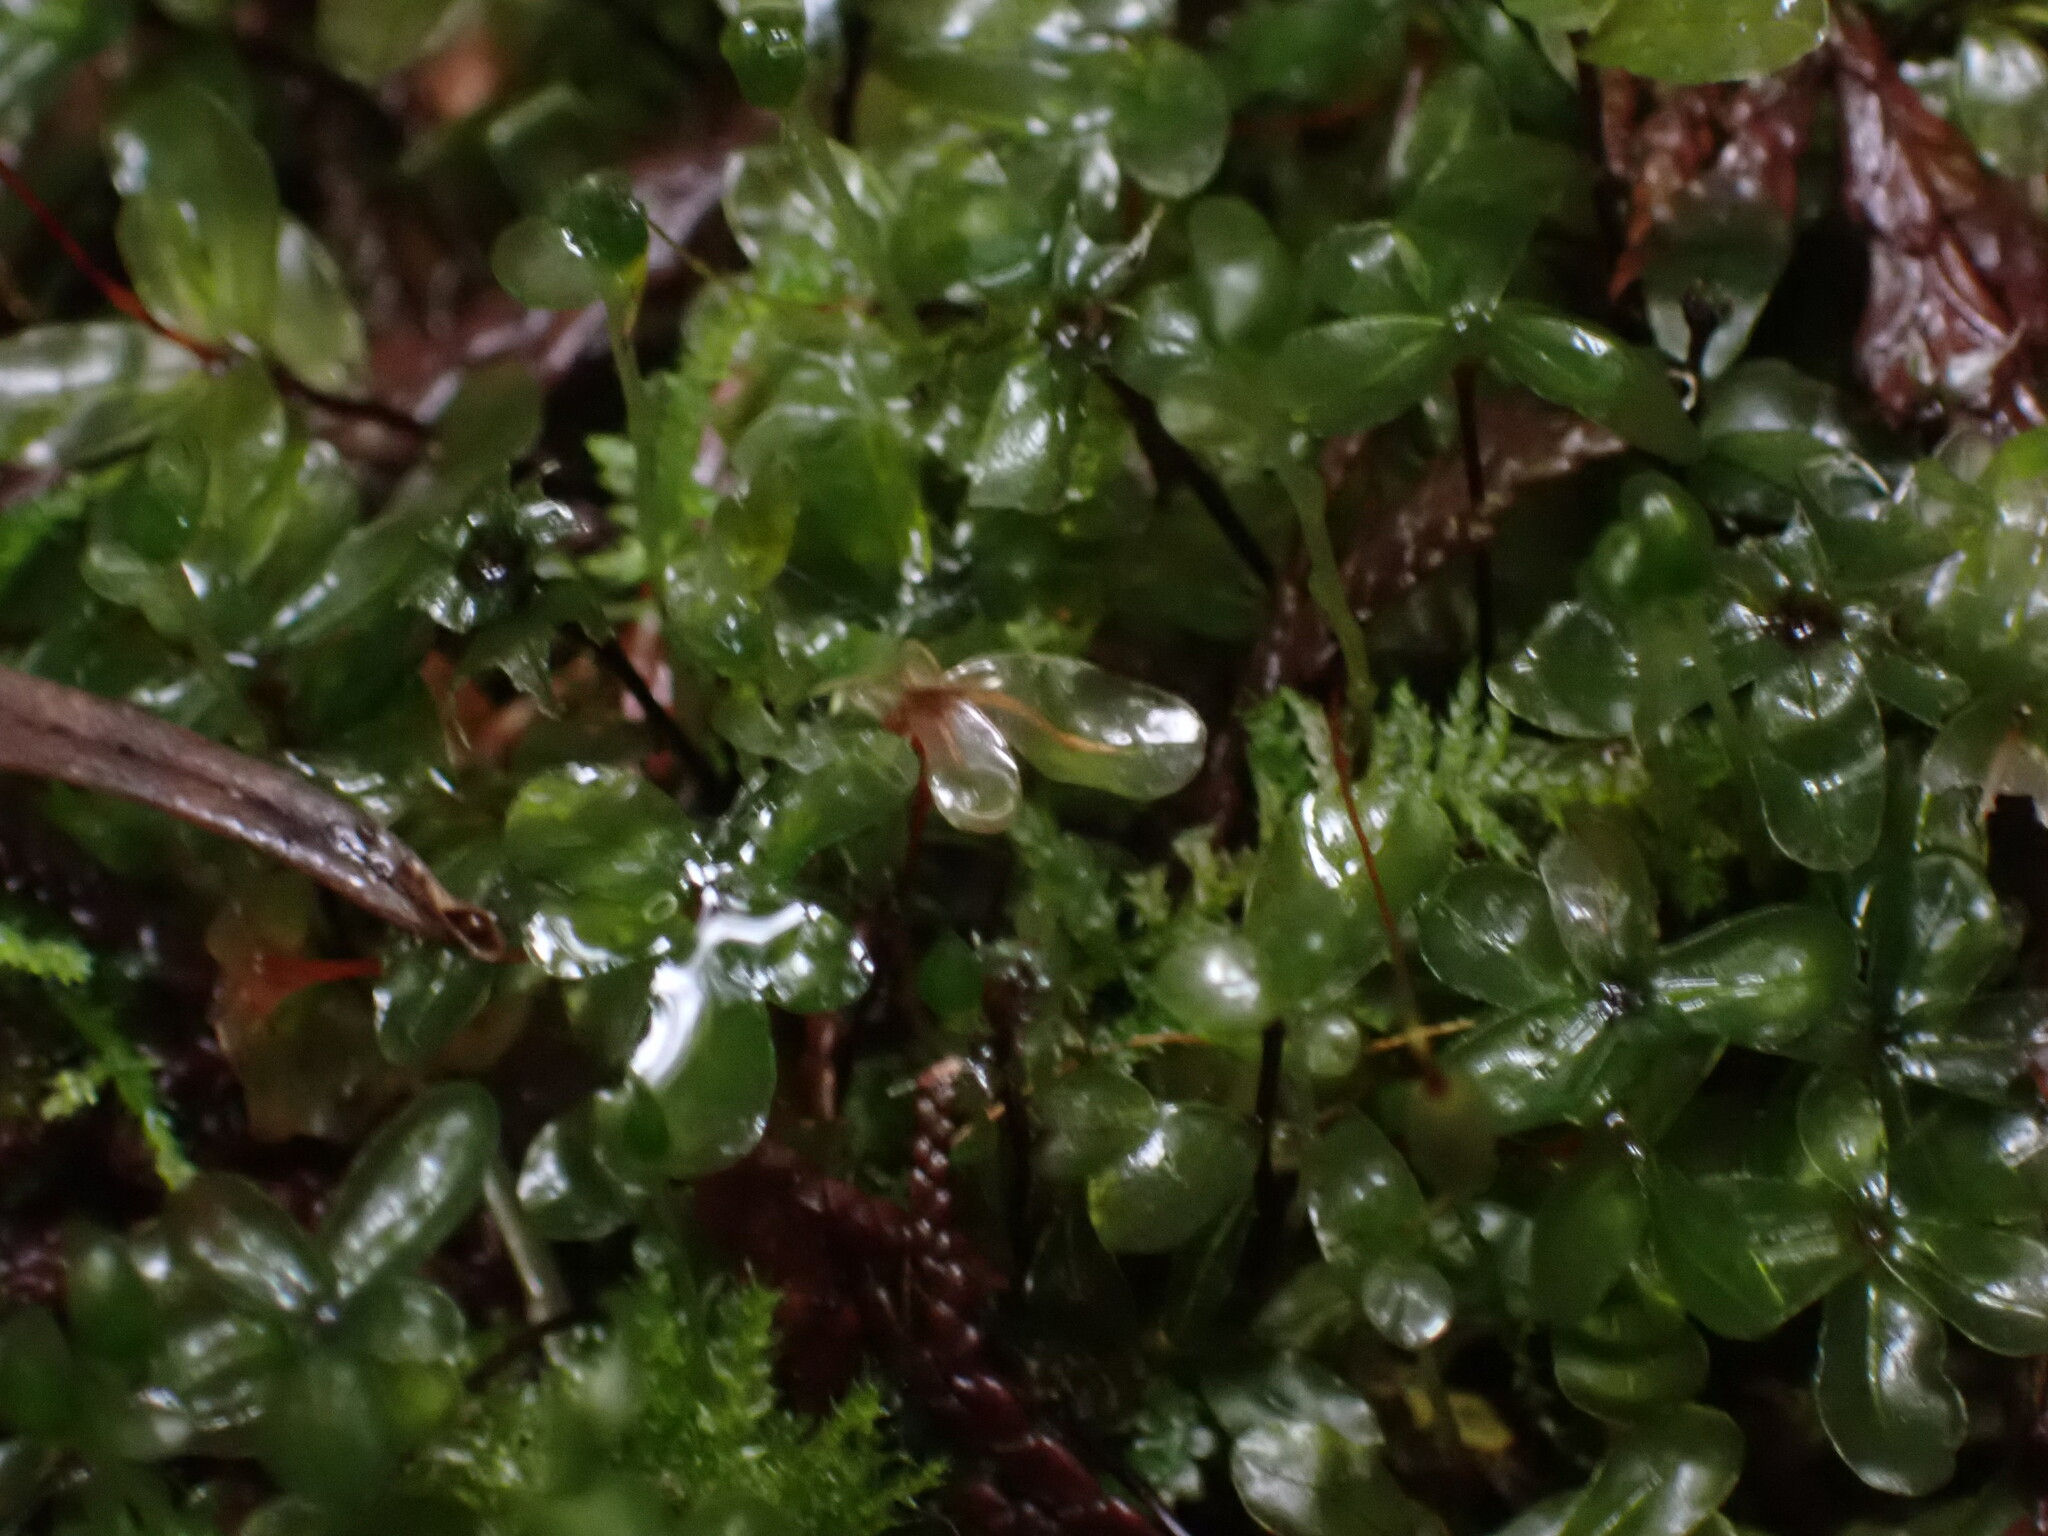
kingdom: Plantae
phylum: Bryophyta
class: Bryopsida
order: Bryales
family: Mniaceae
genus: Rhizomnium
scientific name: Rhizomnium glabrescens
